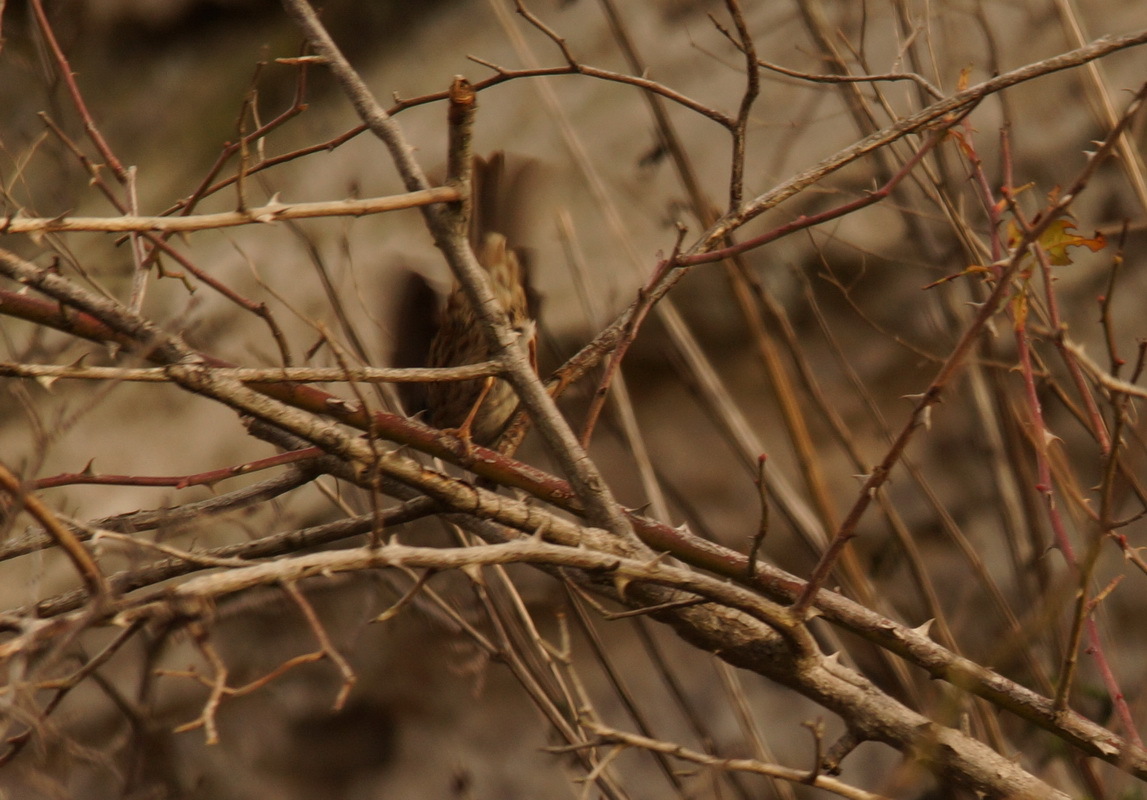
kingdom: Animalia
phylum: Chordata
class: Aves
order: Passeriformes
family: Prunellidae
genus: Prunella
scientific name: Prunella modularis
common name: Dunnock
